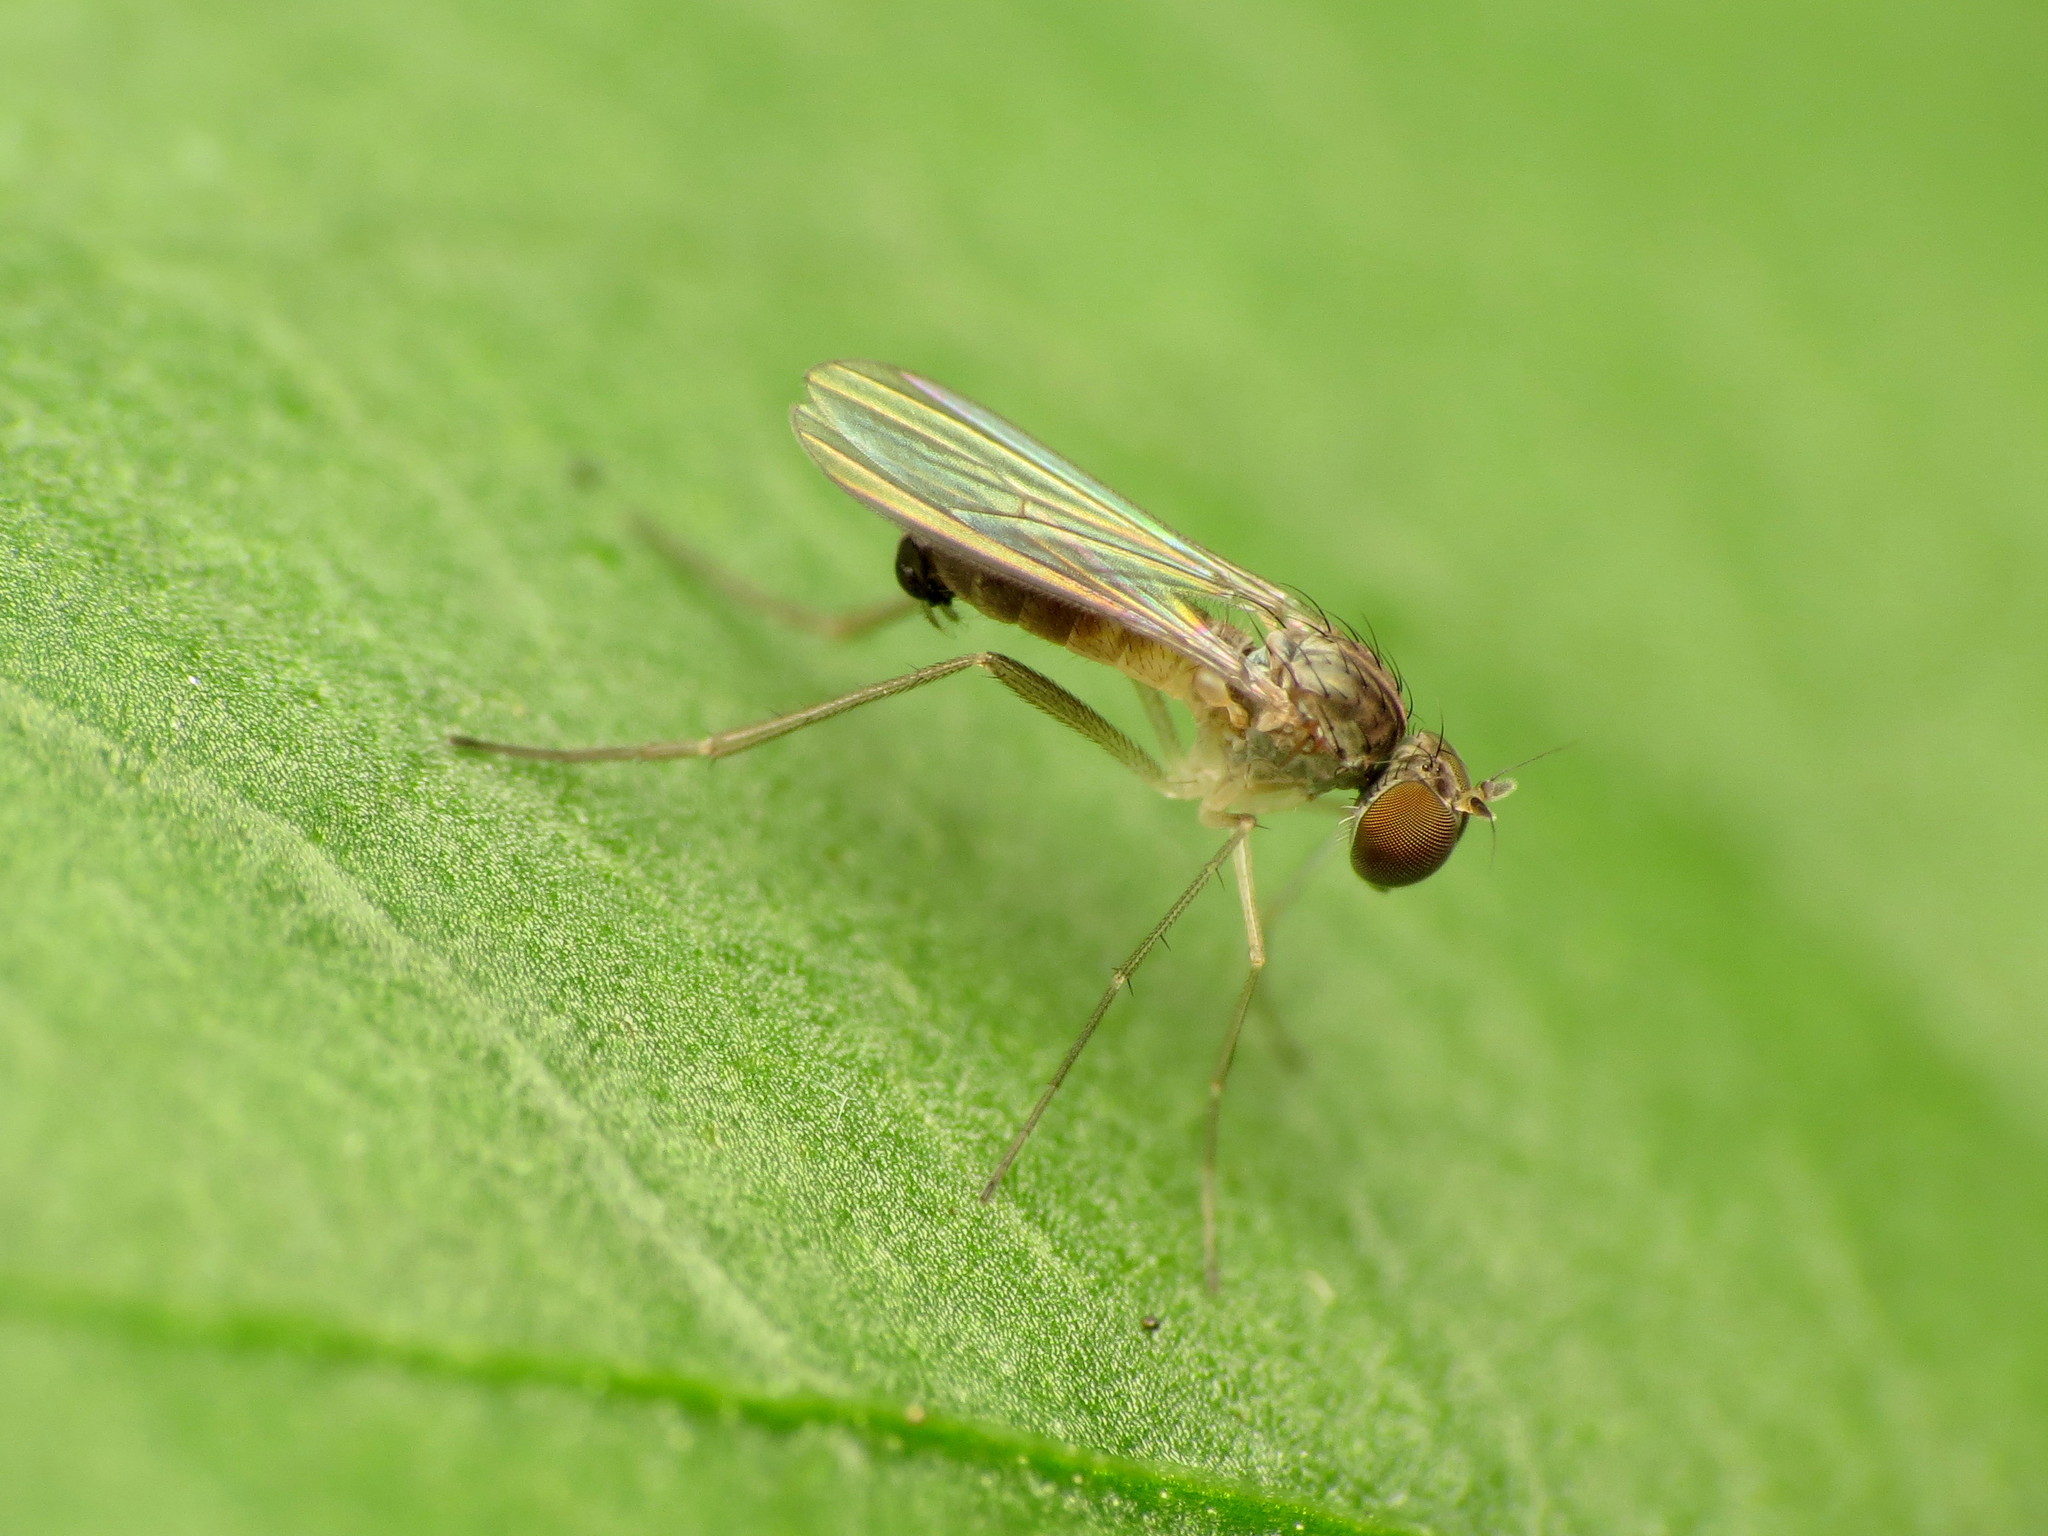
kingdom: Animalia
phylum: Arthropoda
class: Insecta
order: Diptera
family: Dolichopodidae
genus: Sympycnus
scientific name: Sympycnus lineatus
